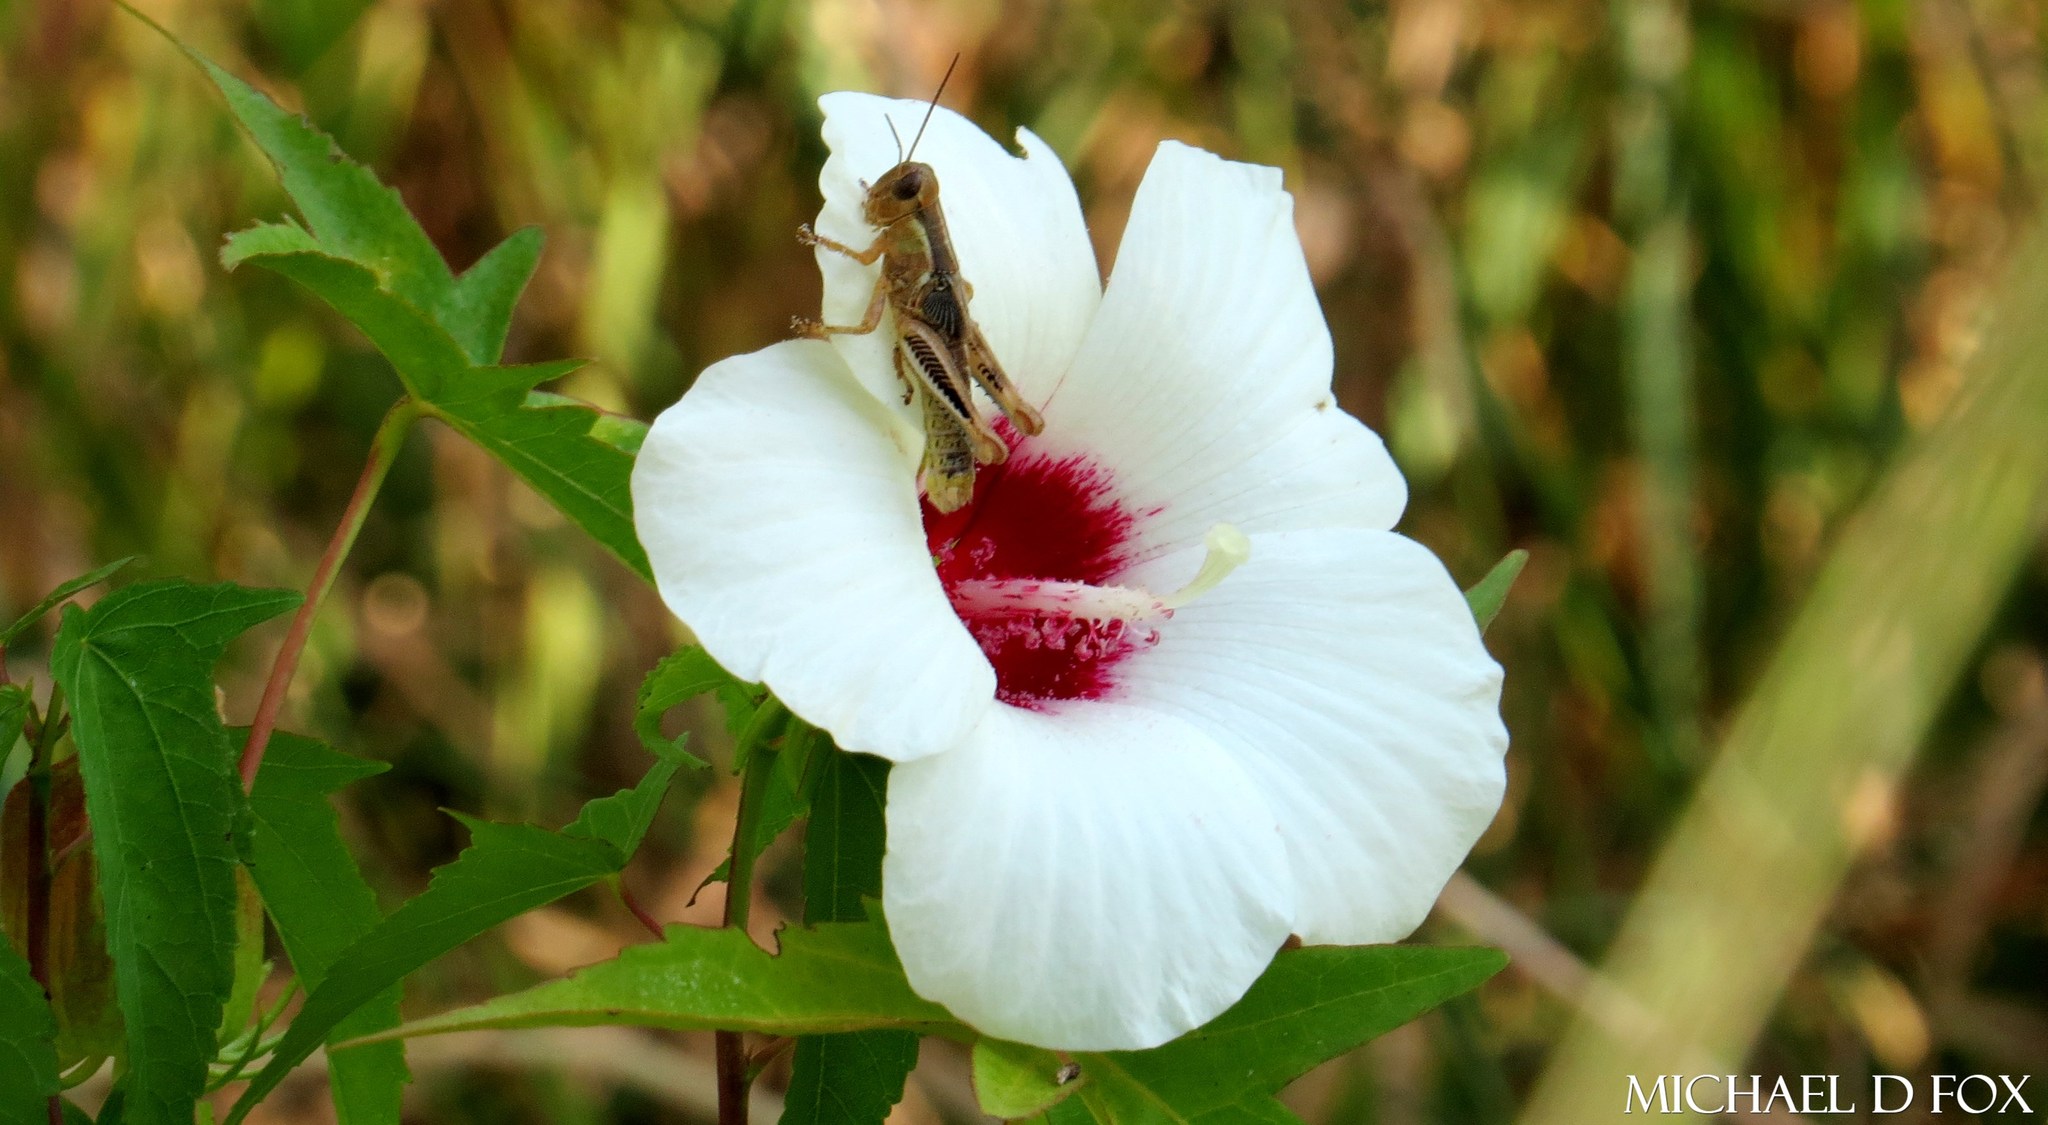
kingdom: Plantae
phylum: Tracheophyta
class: Magnoliopsida
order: Malvales
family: Malvaceae
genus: Hibiscus
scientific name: Hibiscus laevis
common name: Scarlet rose-mallow
